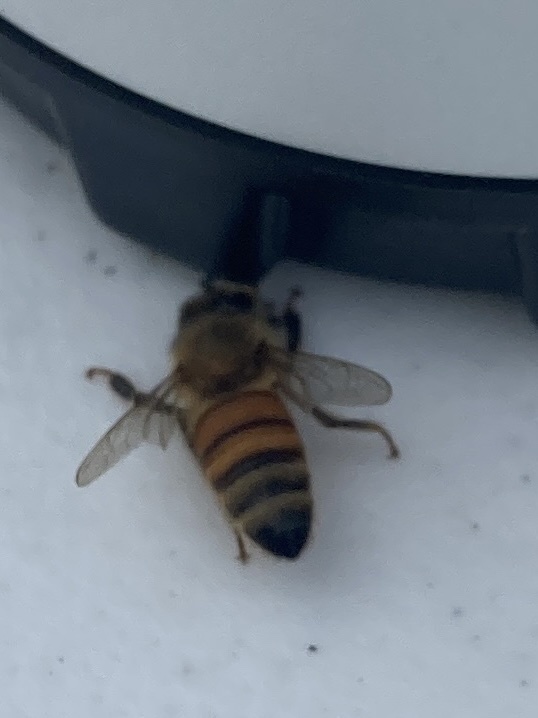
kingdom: Animalia
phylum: Arthropoda
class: Insecta
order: Hymenoptera
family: Apidae
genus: Apis
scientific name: Apis mellifera
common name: Honey bee
